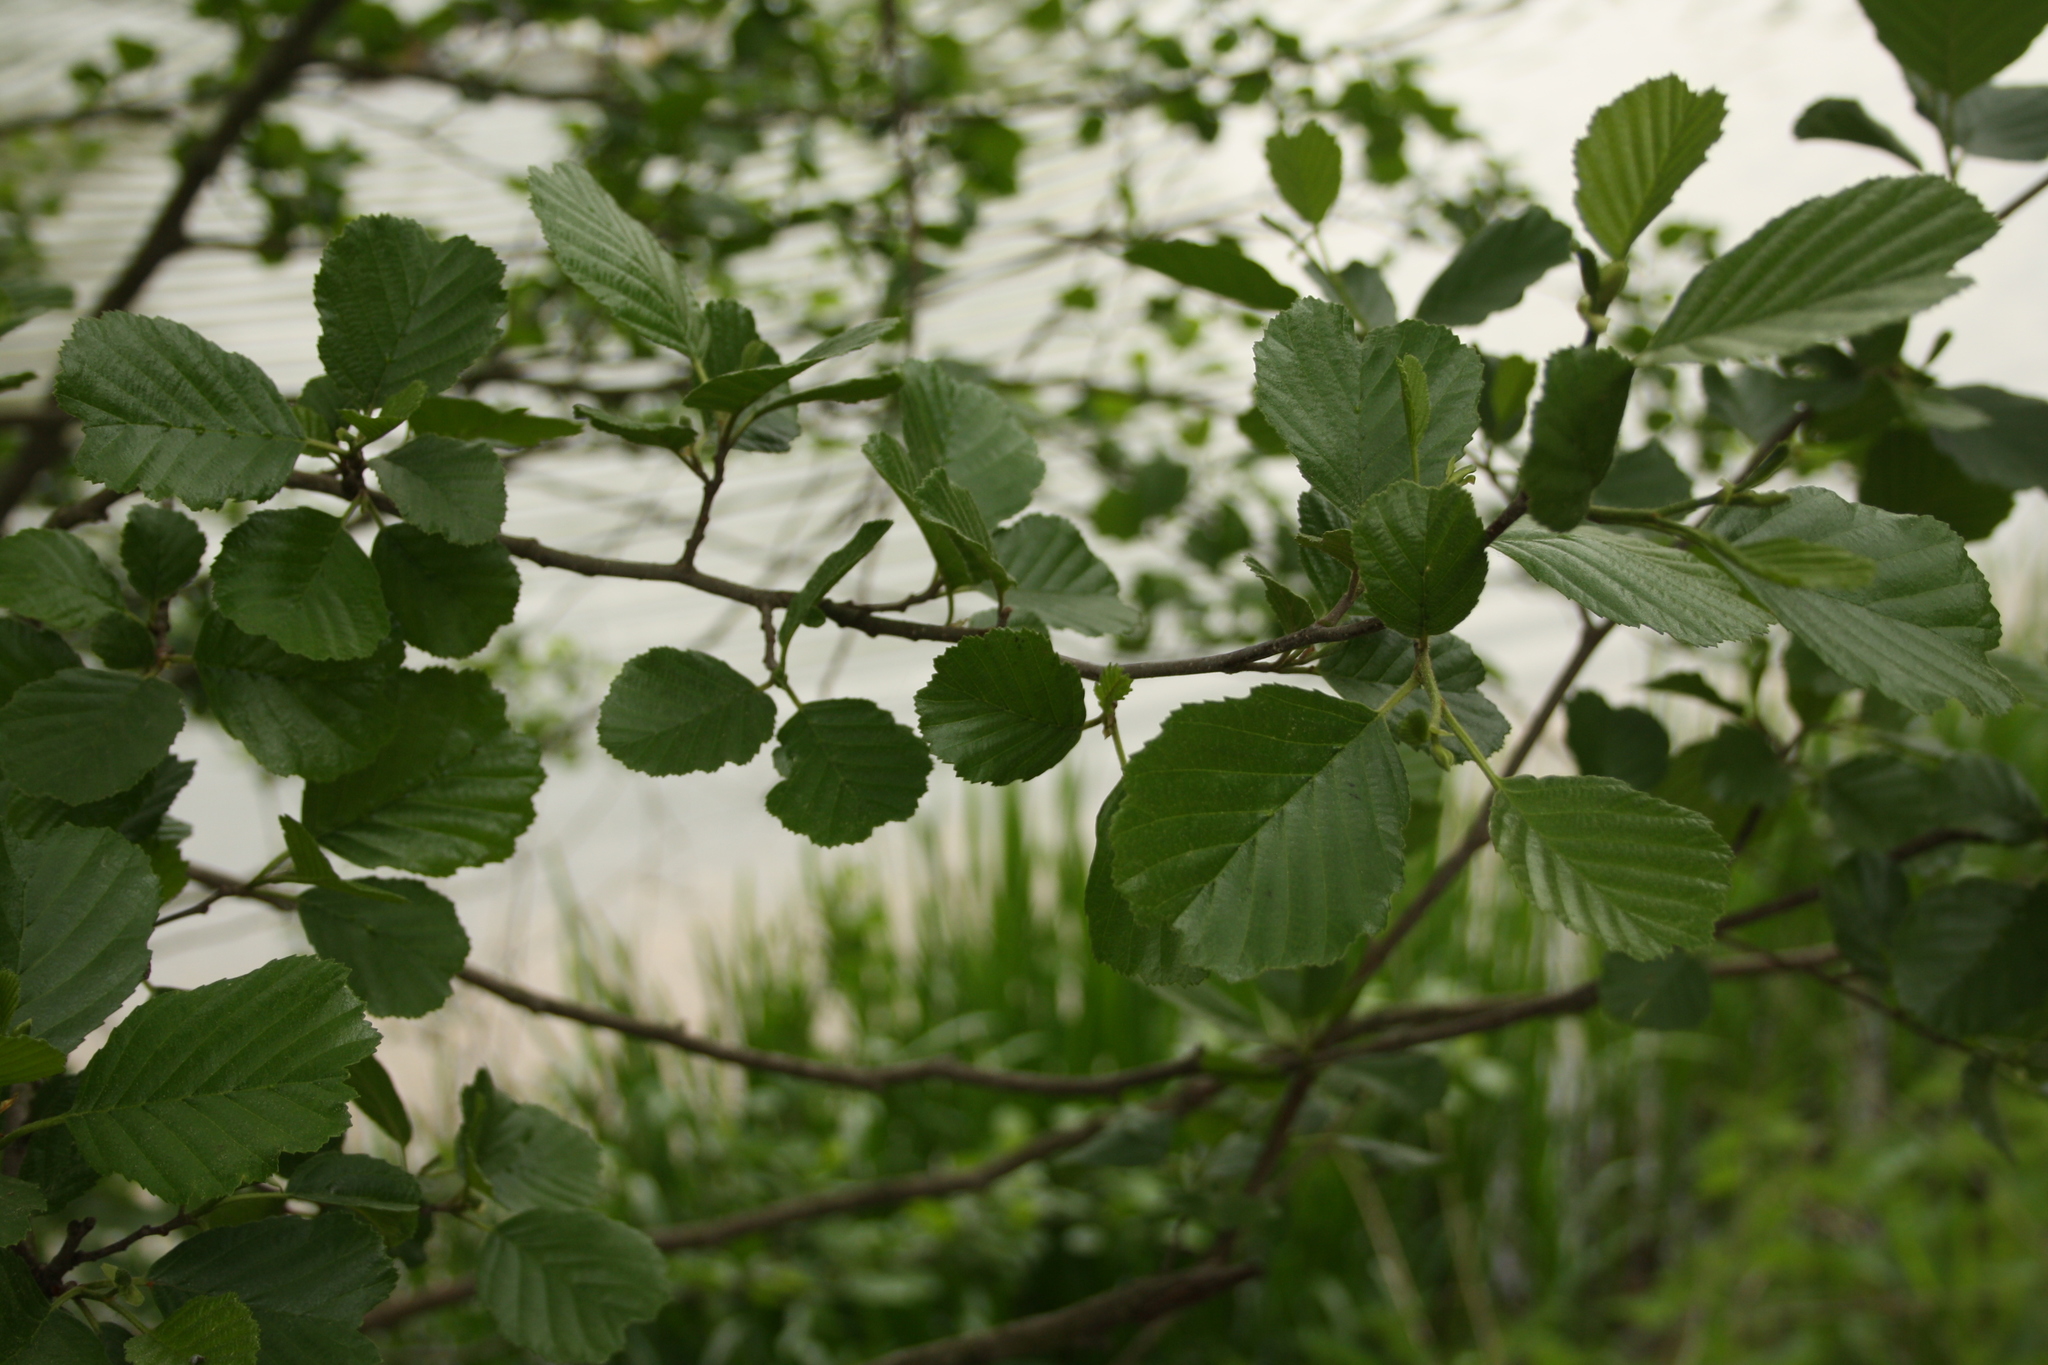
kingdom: Plantae
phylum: Tracheophyta
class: Magnoliopsida
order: Fagales
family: Betulaceae
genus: Alnus
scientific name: Alnus glutinosa
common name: Black alder
